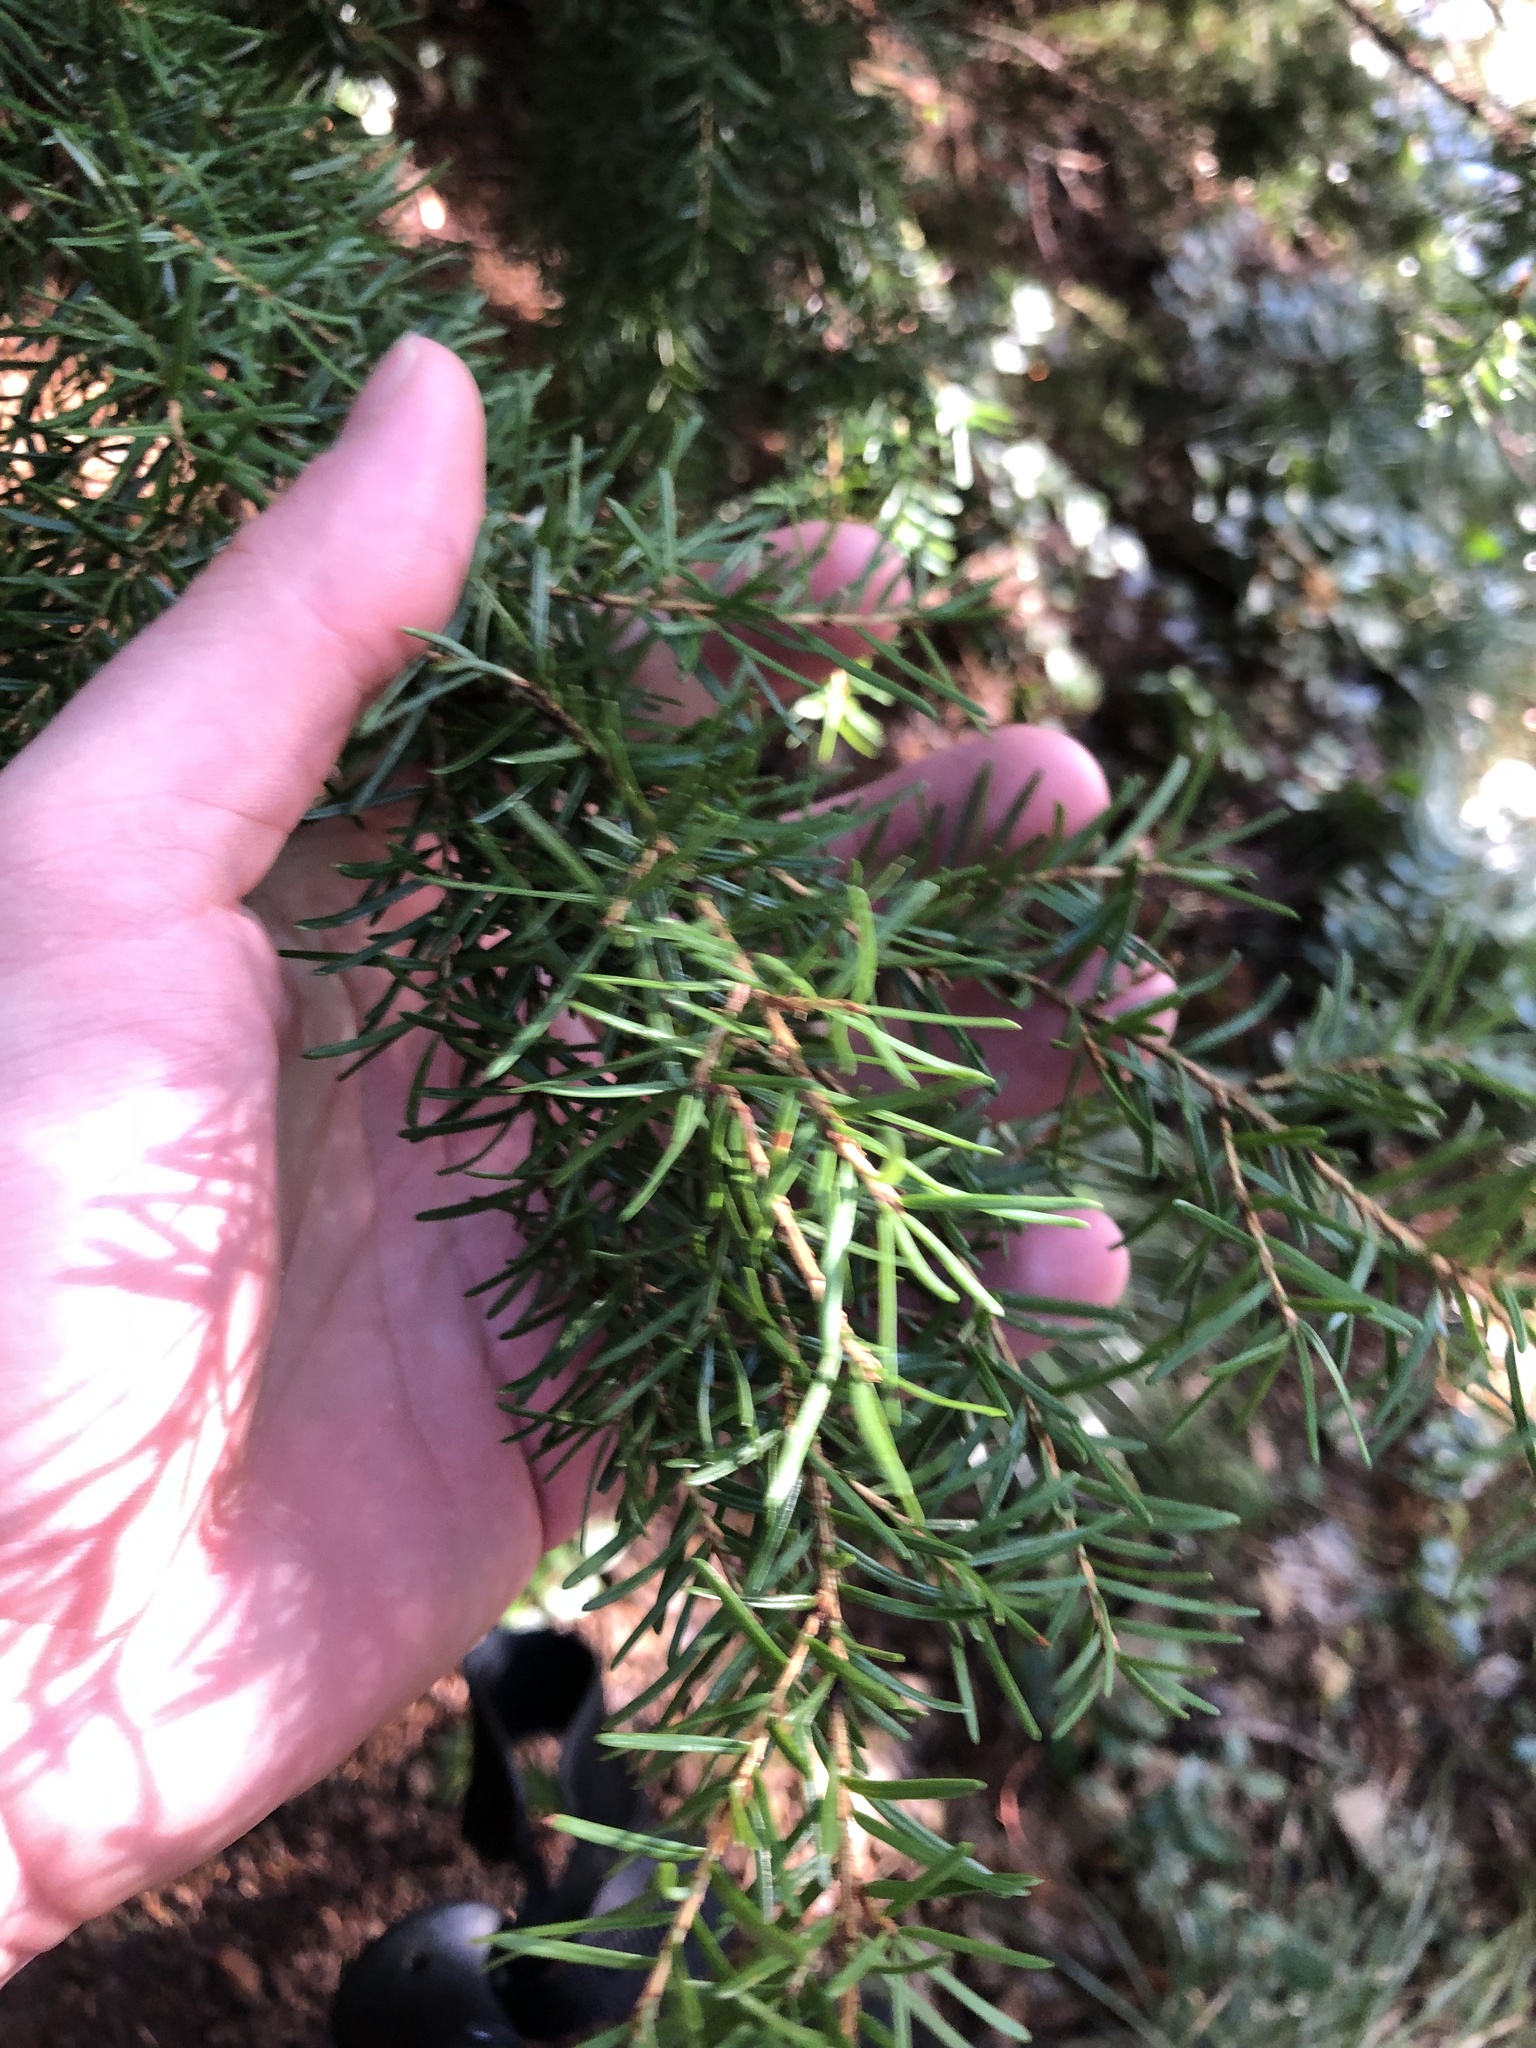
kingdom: Plantae
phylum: Tracheophyta
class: Pinopsida
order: Pinales
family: Pinaceae
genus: Tsuga
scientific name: Tsuga mertensiana
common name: Mountain hemlock
